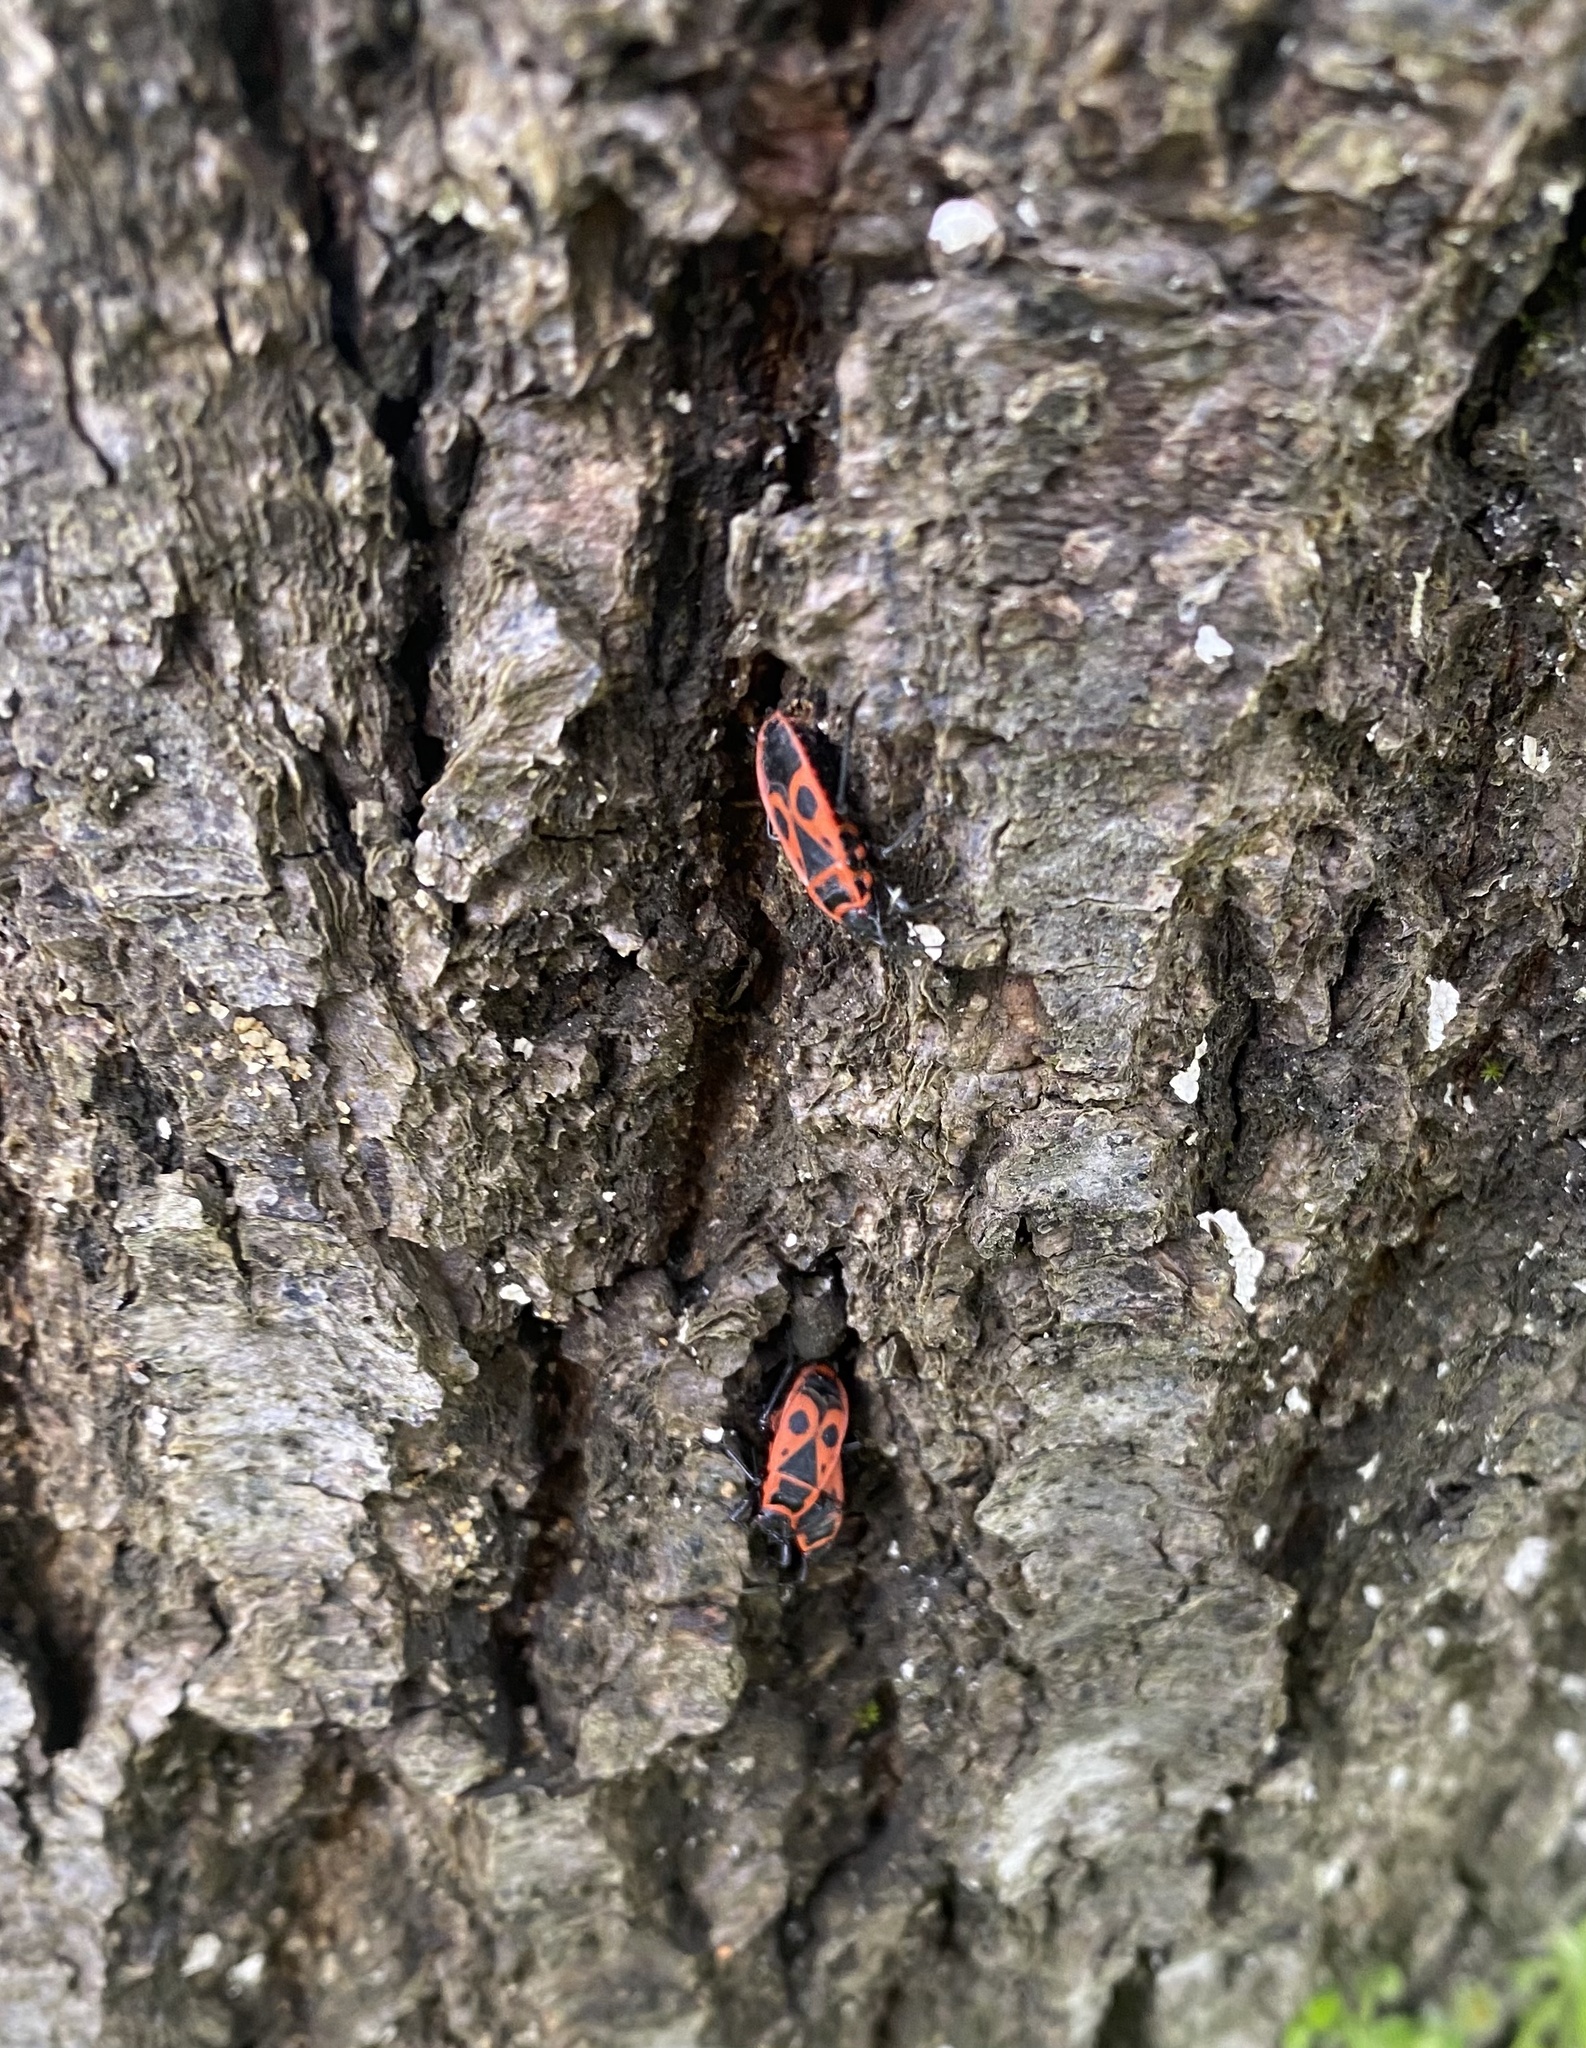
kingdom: Animalia
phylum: Arthropoda
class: Insecta
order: Hemiptera
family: Pyrrhocoridae
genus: Pyrrhocoris
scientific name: Pyrrhocoris apterus
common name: Firebug
